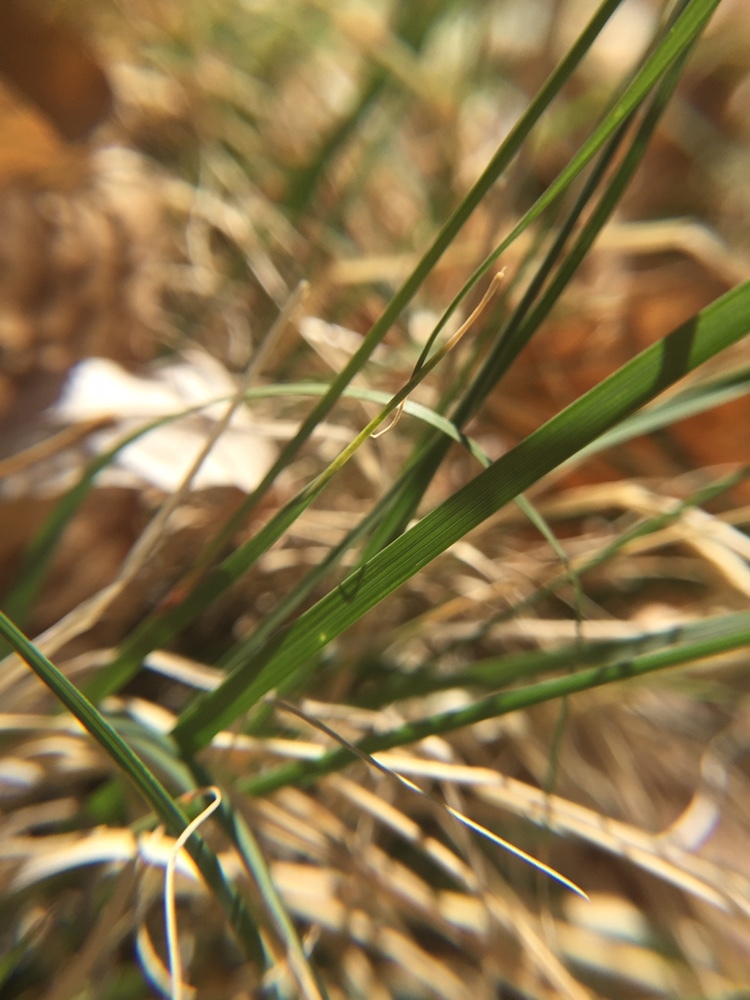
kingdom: Plantae
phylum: Tracheophyta
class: Liliopsida
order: Poales
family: Poaceae
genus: Bouteloua
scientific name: Bouteloua gracilis
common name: Blue grama
